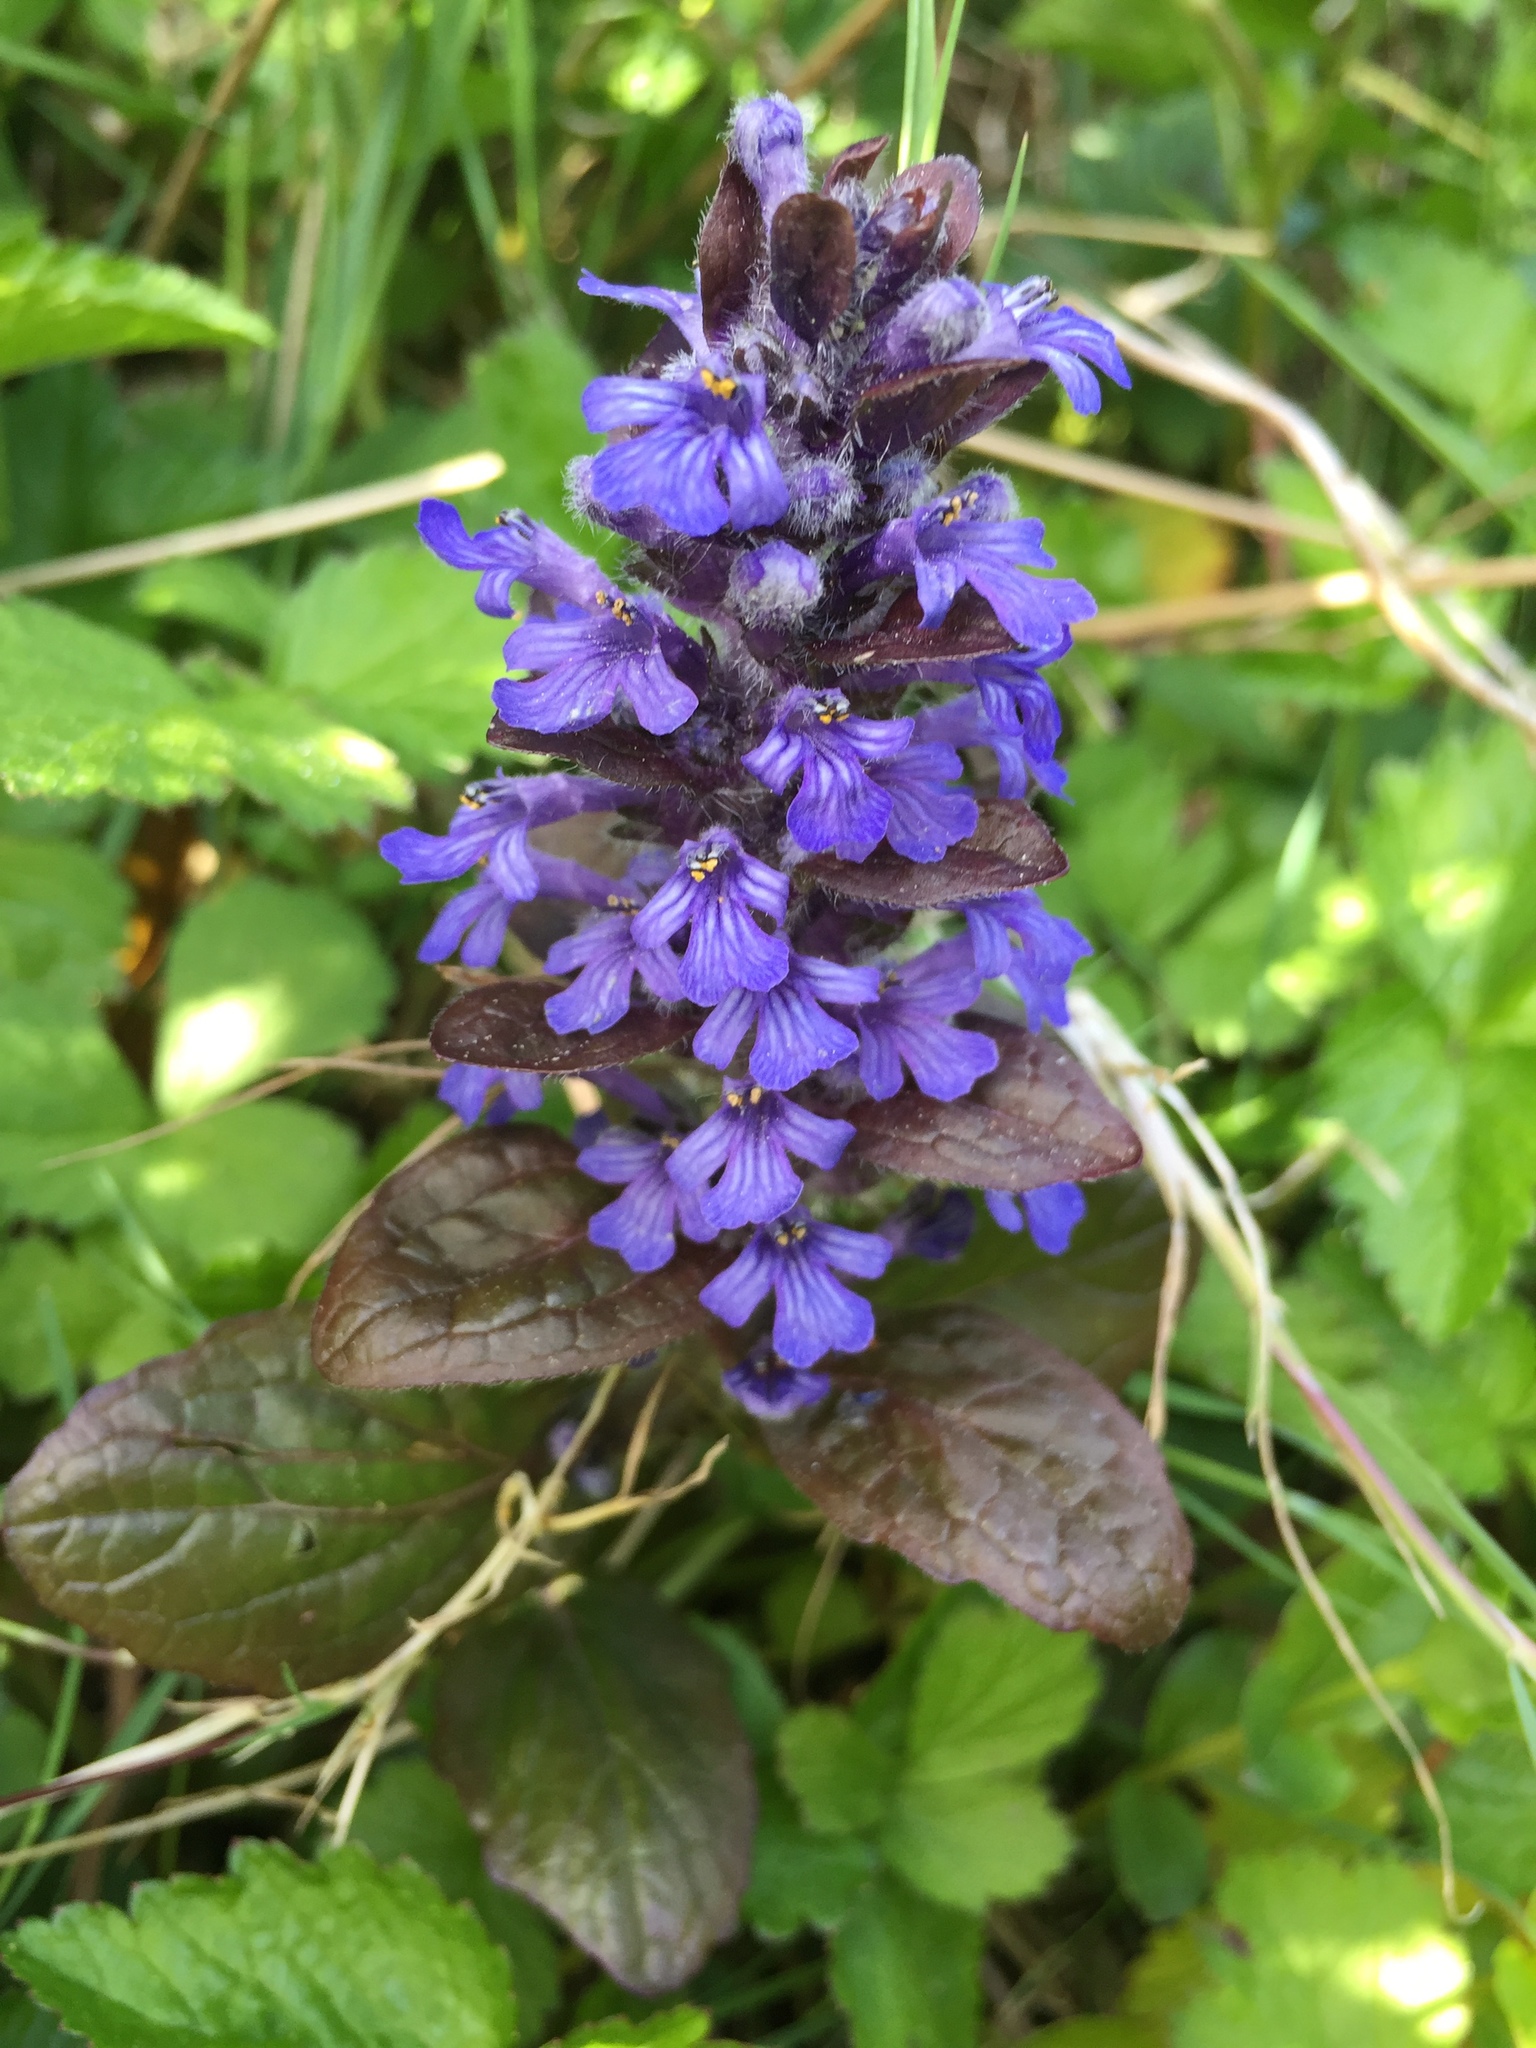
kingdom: Plantae
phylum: Tracheophyta
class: Magnoliopsida
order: Lamiales
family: Lamiaceae
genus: Ajuga
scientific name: Ajuga reptans
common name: Bugle
